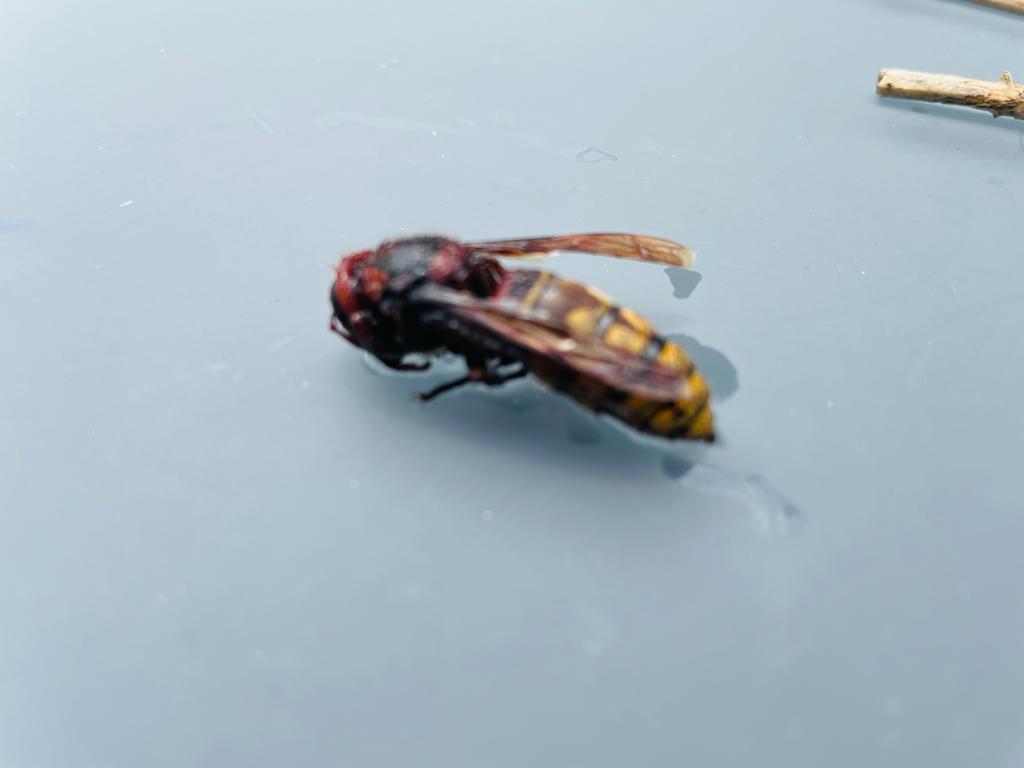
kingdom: Animalia
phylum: Arthropoda
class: Insecta
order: Hymenoptera
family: Vespidae
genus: Vespa
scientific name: Vespa crabro
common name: Hornet
